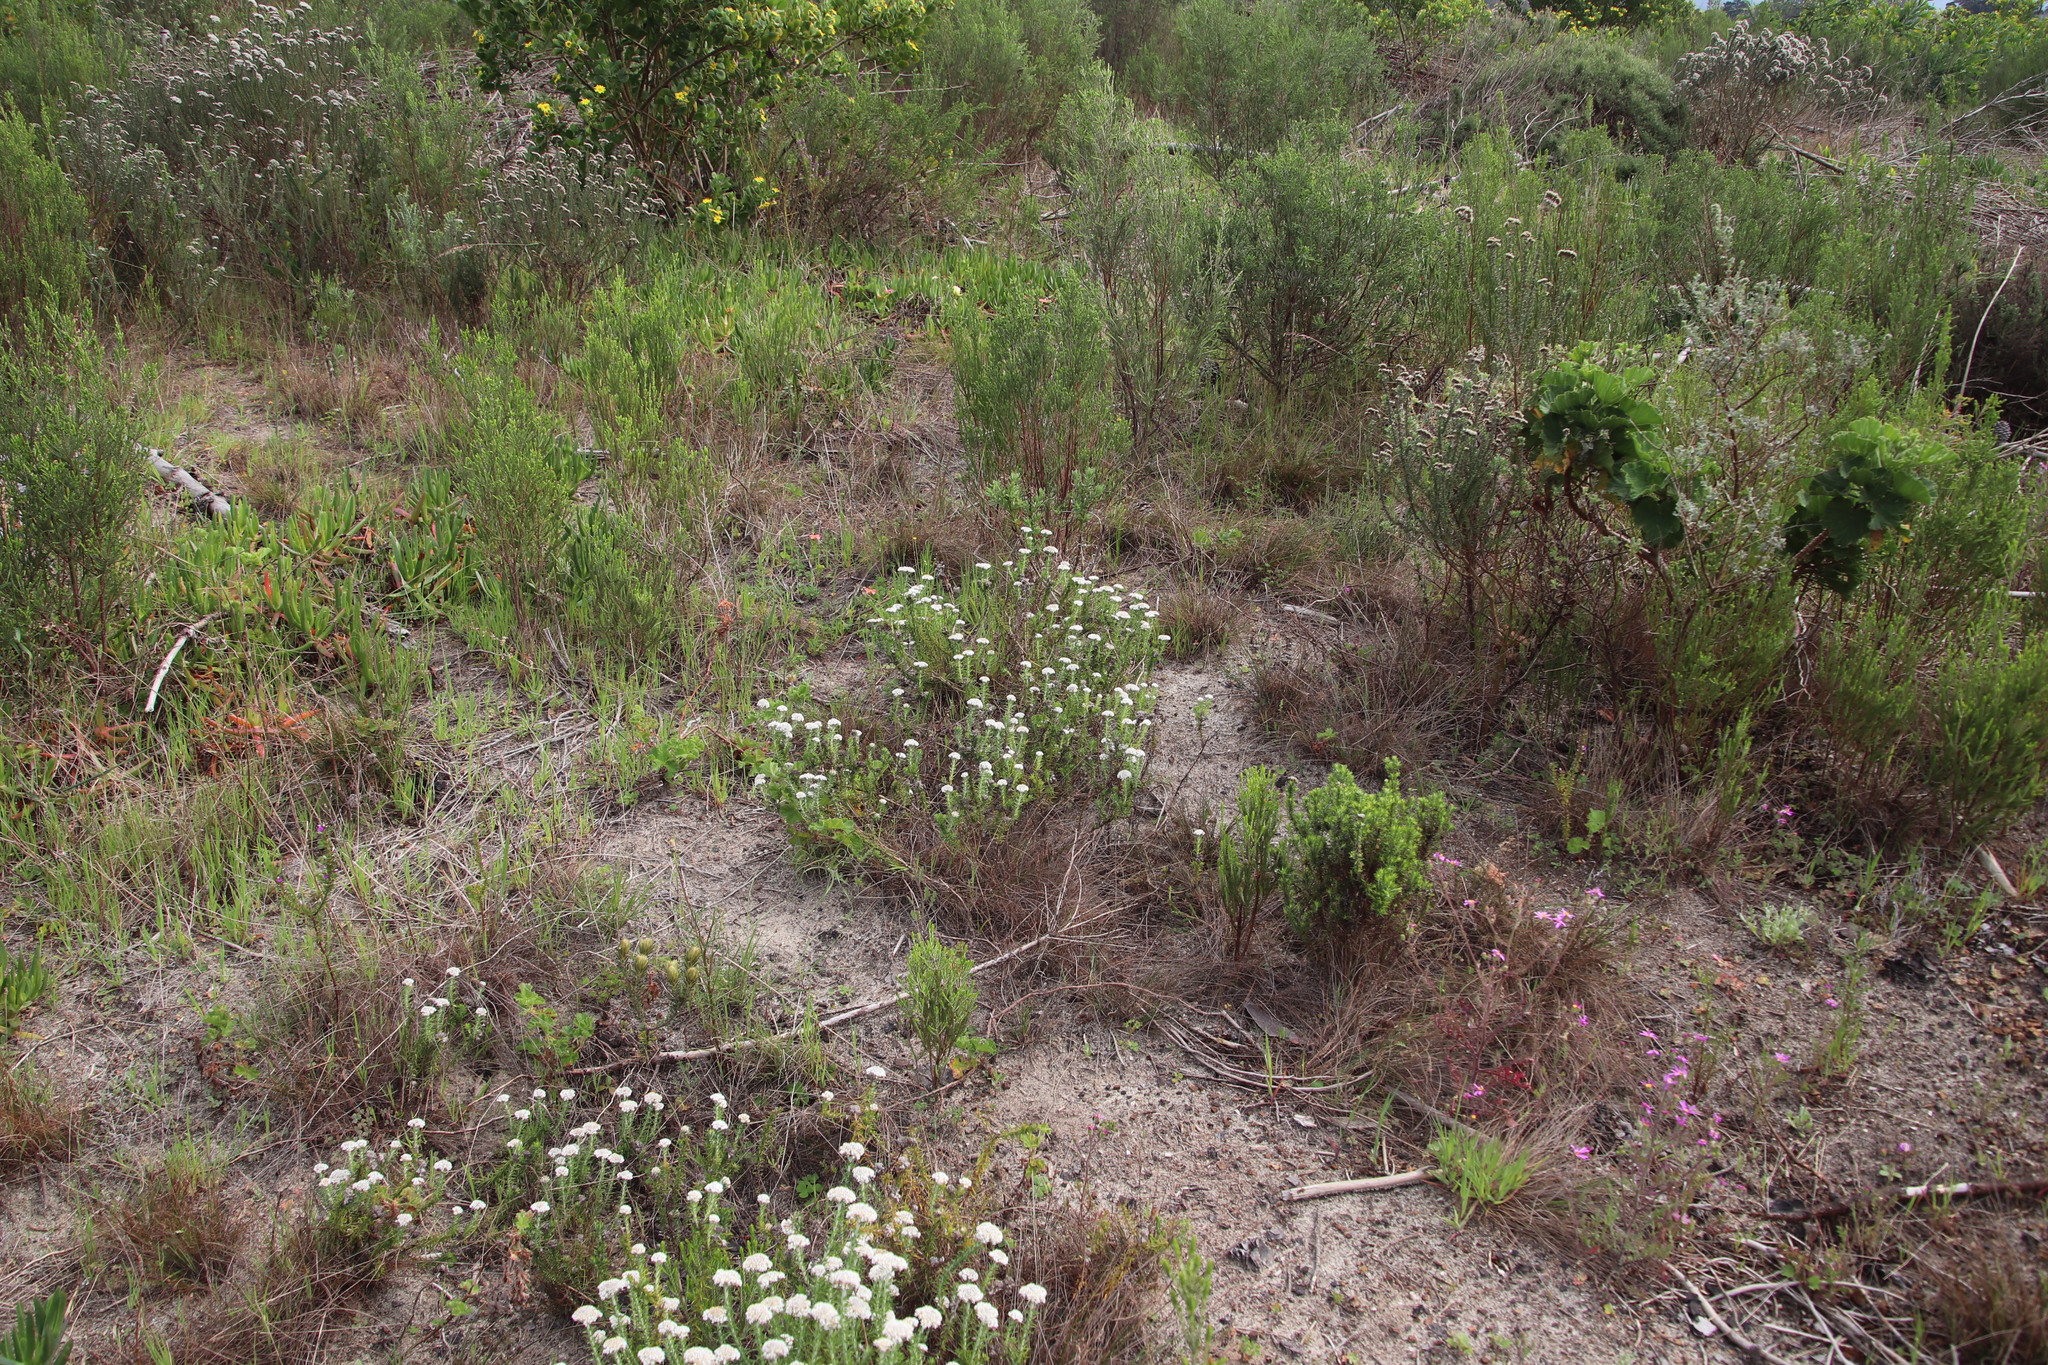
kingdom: Plantae
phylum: Tracheophyta
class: Magnoliopsida
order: Asterales
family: Asteraceae
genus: Metalasia
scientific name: Metalasia pulchella
